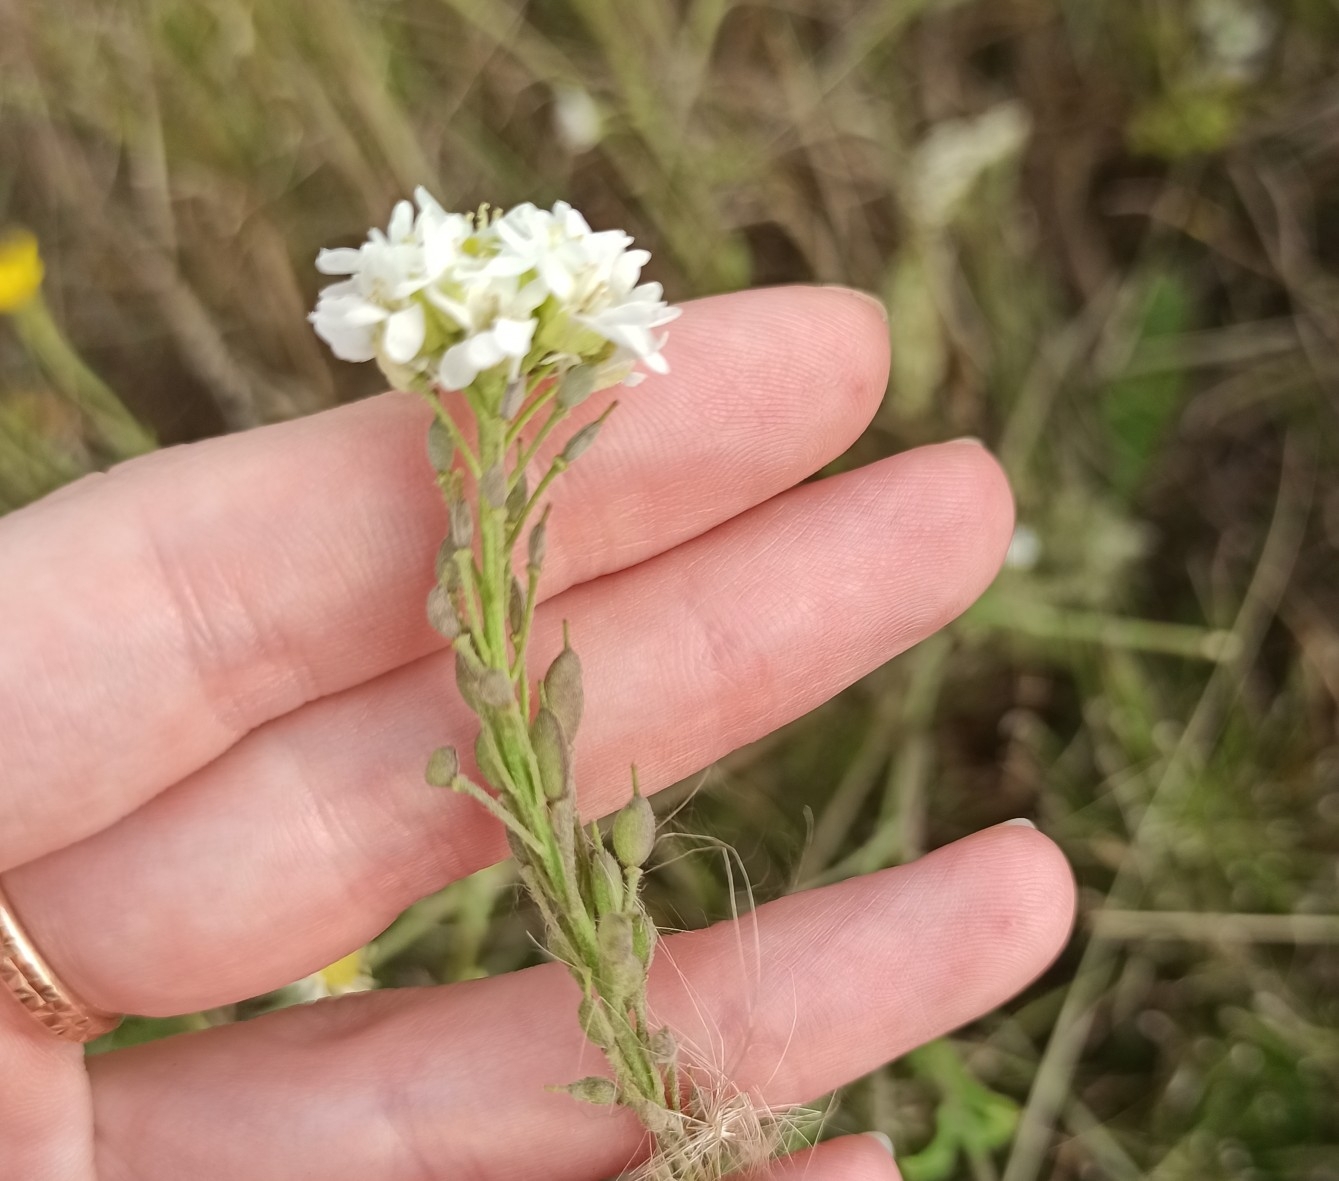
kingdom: Plantae
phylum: Tracheophyta
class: Magnoliopsida
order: Brassicales
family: Brassicaceae
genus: Berteroa
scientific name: Berteroa incana
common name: Hoary alison
